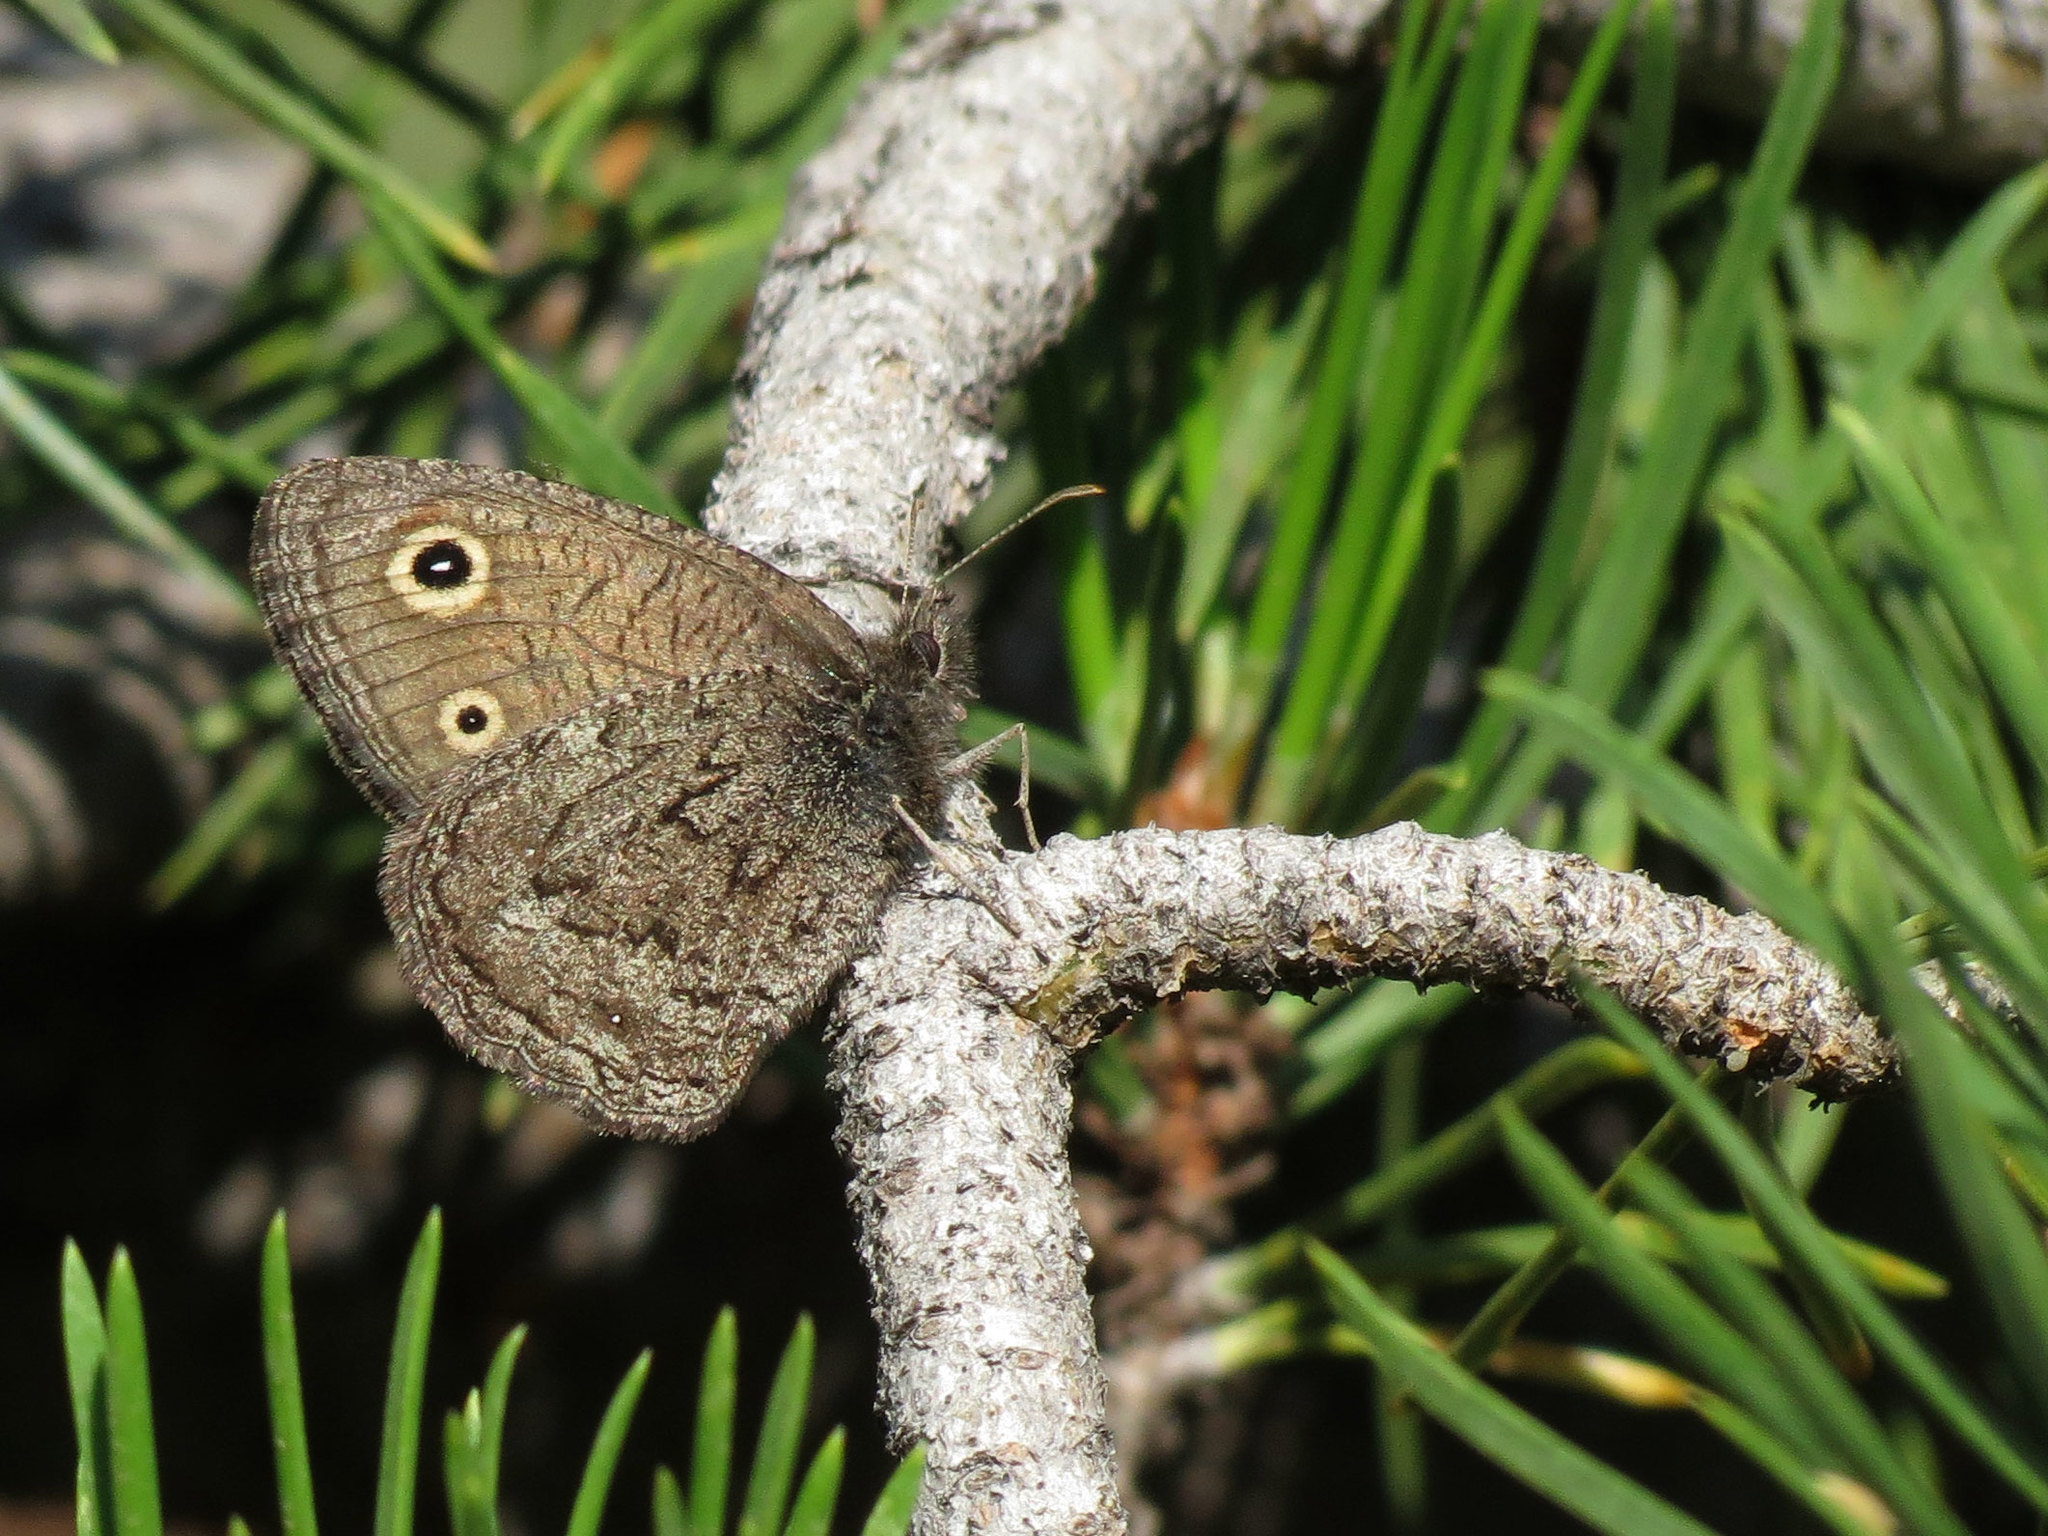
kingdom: Animalia
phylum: Arthropoda
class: Insecta
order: Lepidoptera
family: Nymphalidae
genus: Cercyonis
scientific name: Cercyonis oetus
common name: Small wood-nymph
